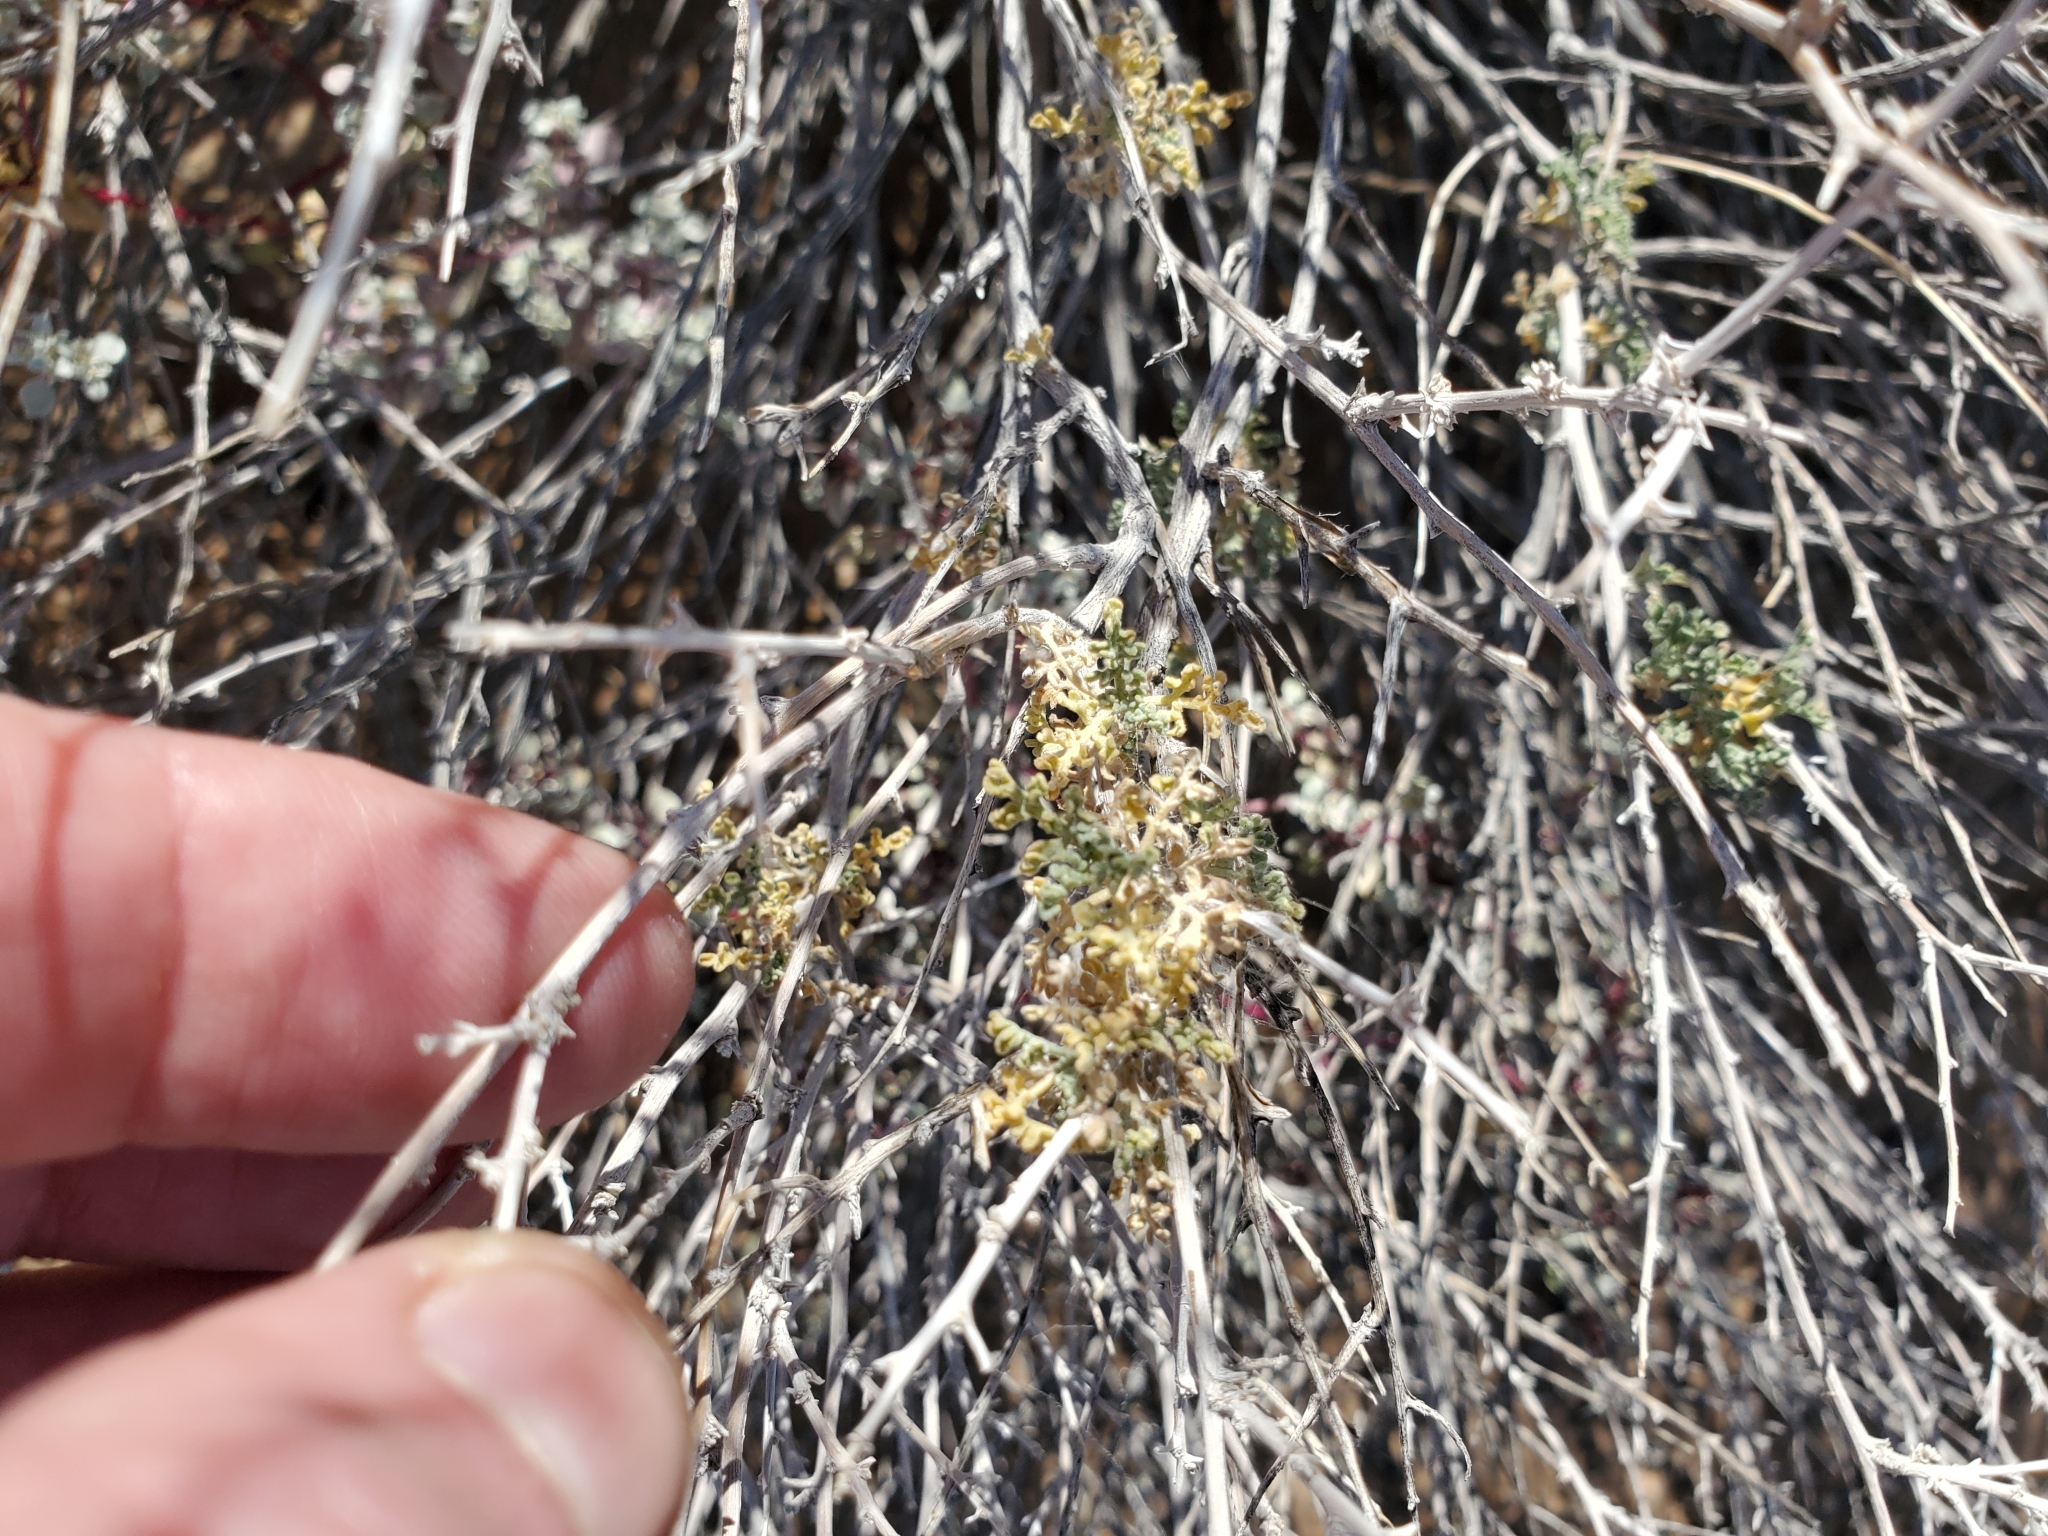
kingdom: Plantae
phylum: Tracheophyta
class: Magnoliopsida
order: Asterales
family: Asteraceae
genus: Ambrosia
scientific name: Ambrosia dumosa
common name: Bur-sage
